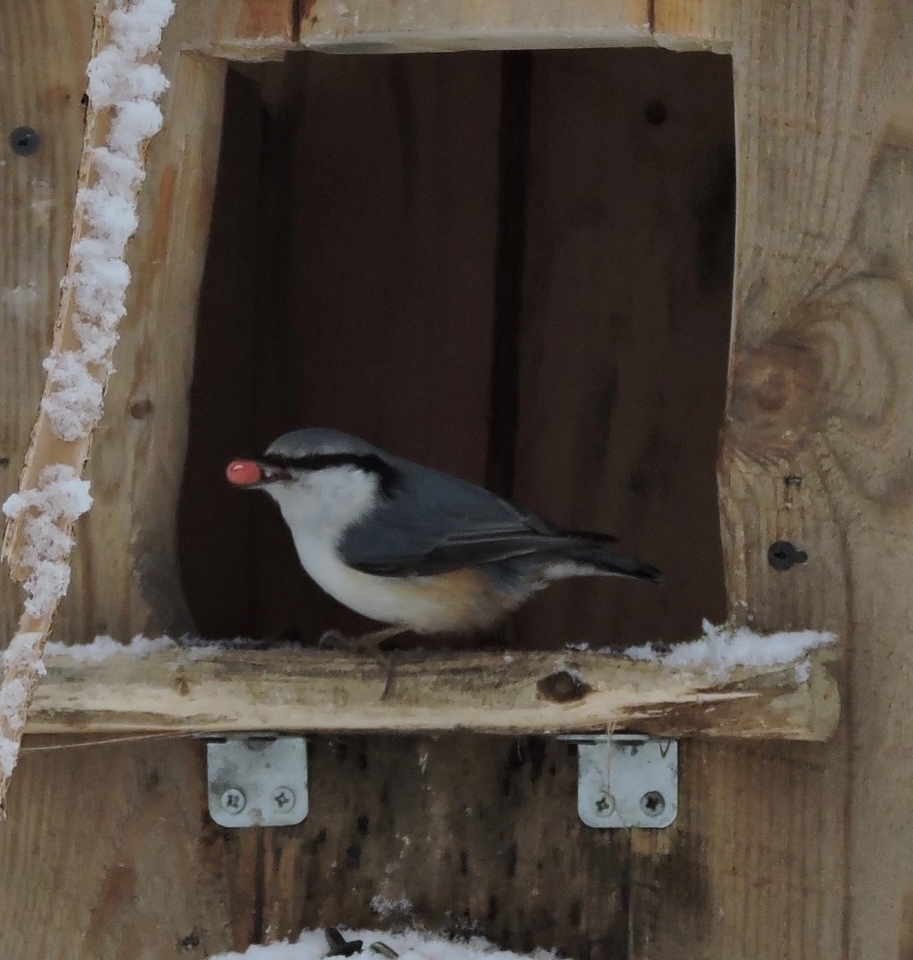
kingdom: Animalia
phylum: Chordata
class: Aves
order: Passeriformes
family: Sittidae
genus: Sitta
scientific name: Sitta europaea
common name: Eurasian nuthatch
